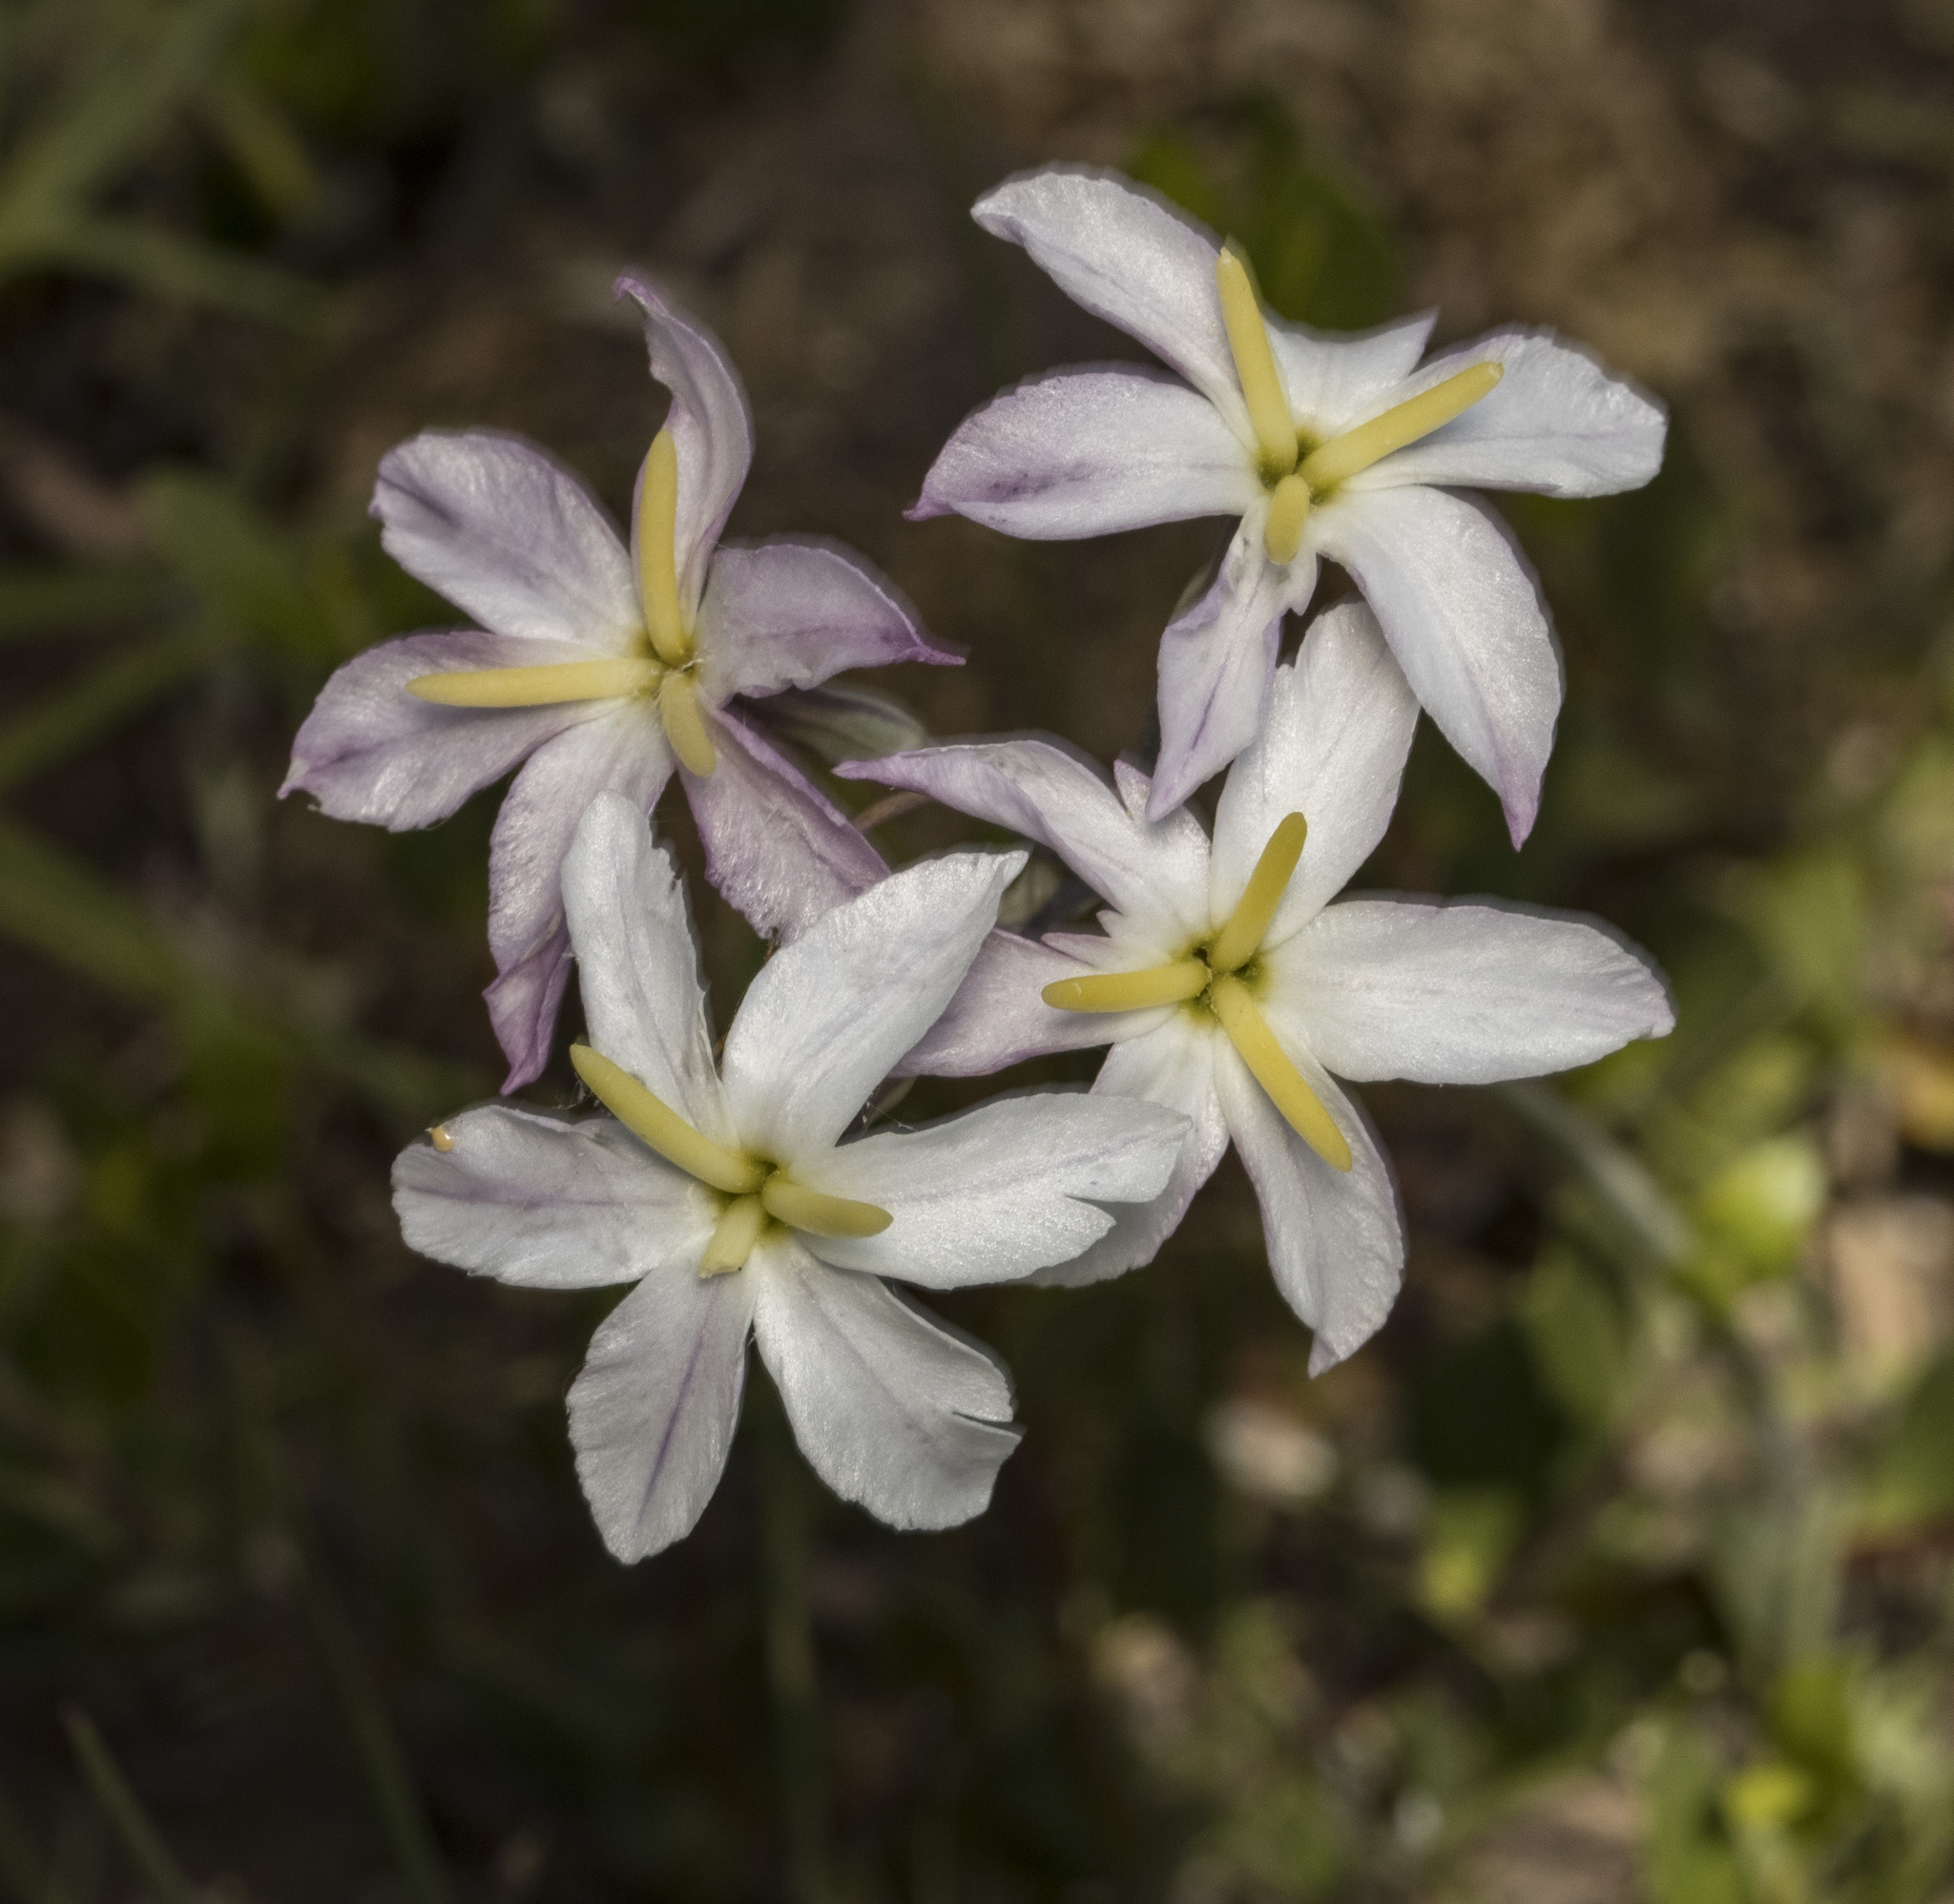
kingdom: Plantae
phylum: Tracheophyta
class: Liliopsida
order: Asparagales
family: Amaryllidaceae
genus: Leucocoryne
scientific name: Leucocoryne violacescens
